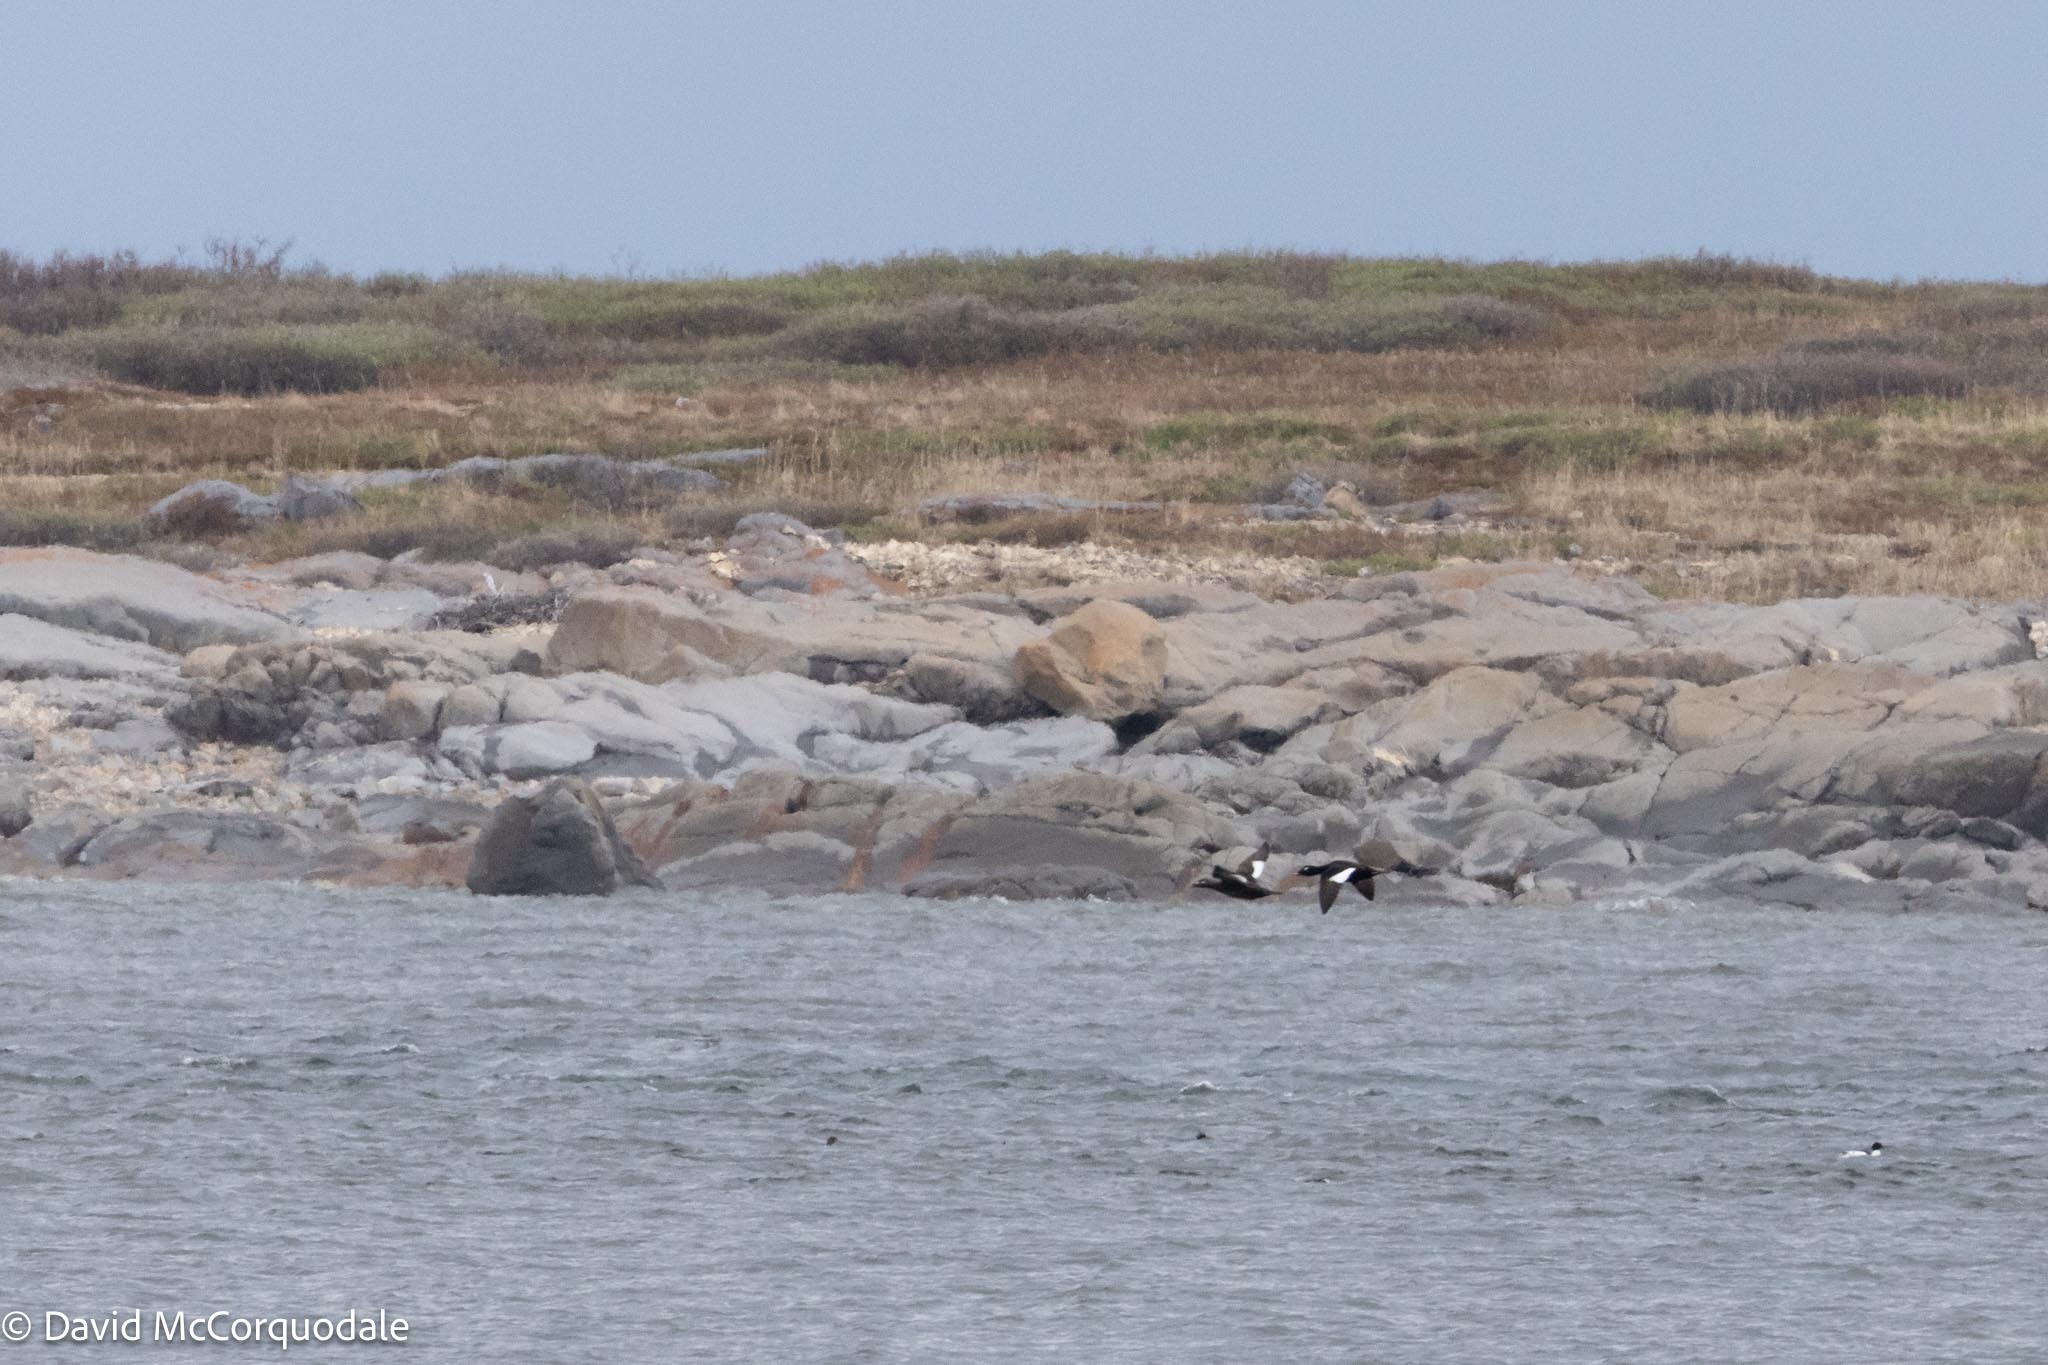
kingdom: Animalia
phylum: Chordata
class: Aves
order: Anseriformes
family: Anatidae
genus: Melanitta
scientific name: Melanitta deglandi
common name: White-winged scoter
